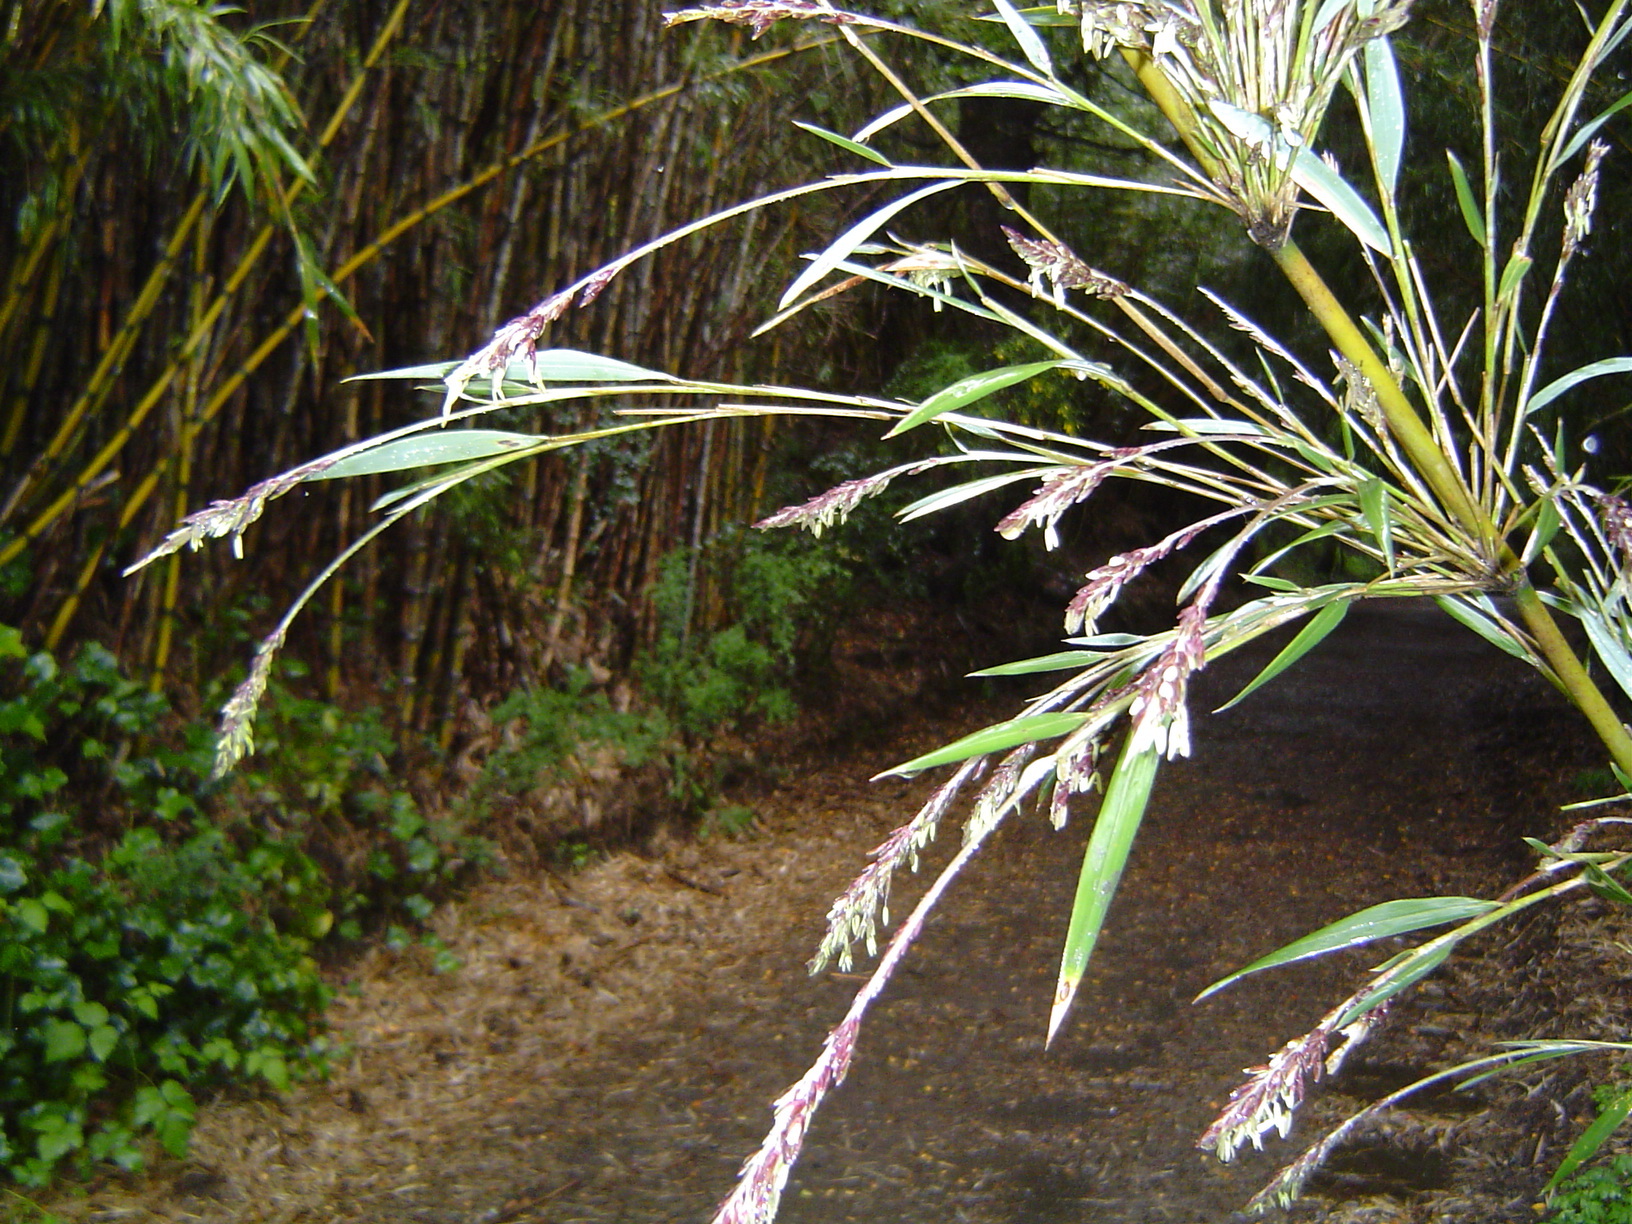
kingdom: Plantae
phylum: Tracheophyta
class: Liliopsida
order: Poales
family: Poaceae
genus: Chusquea
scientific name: Chusquea culeou
